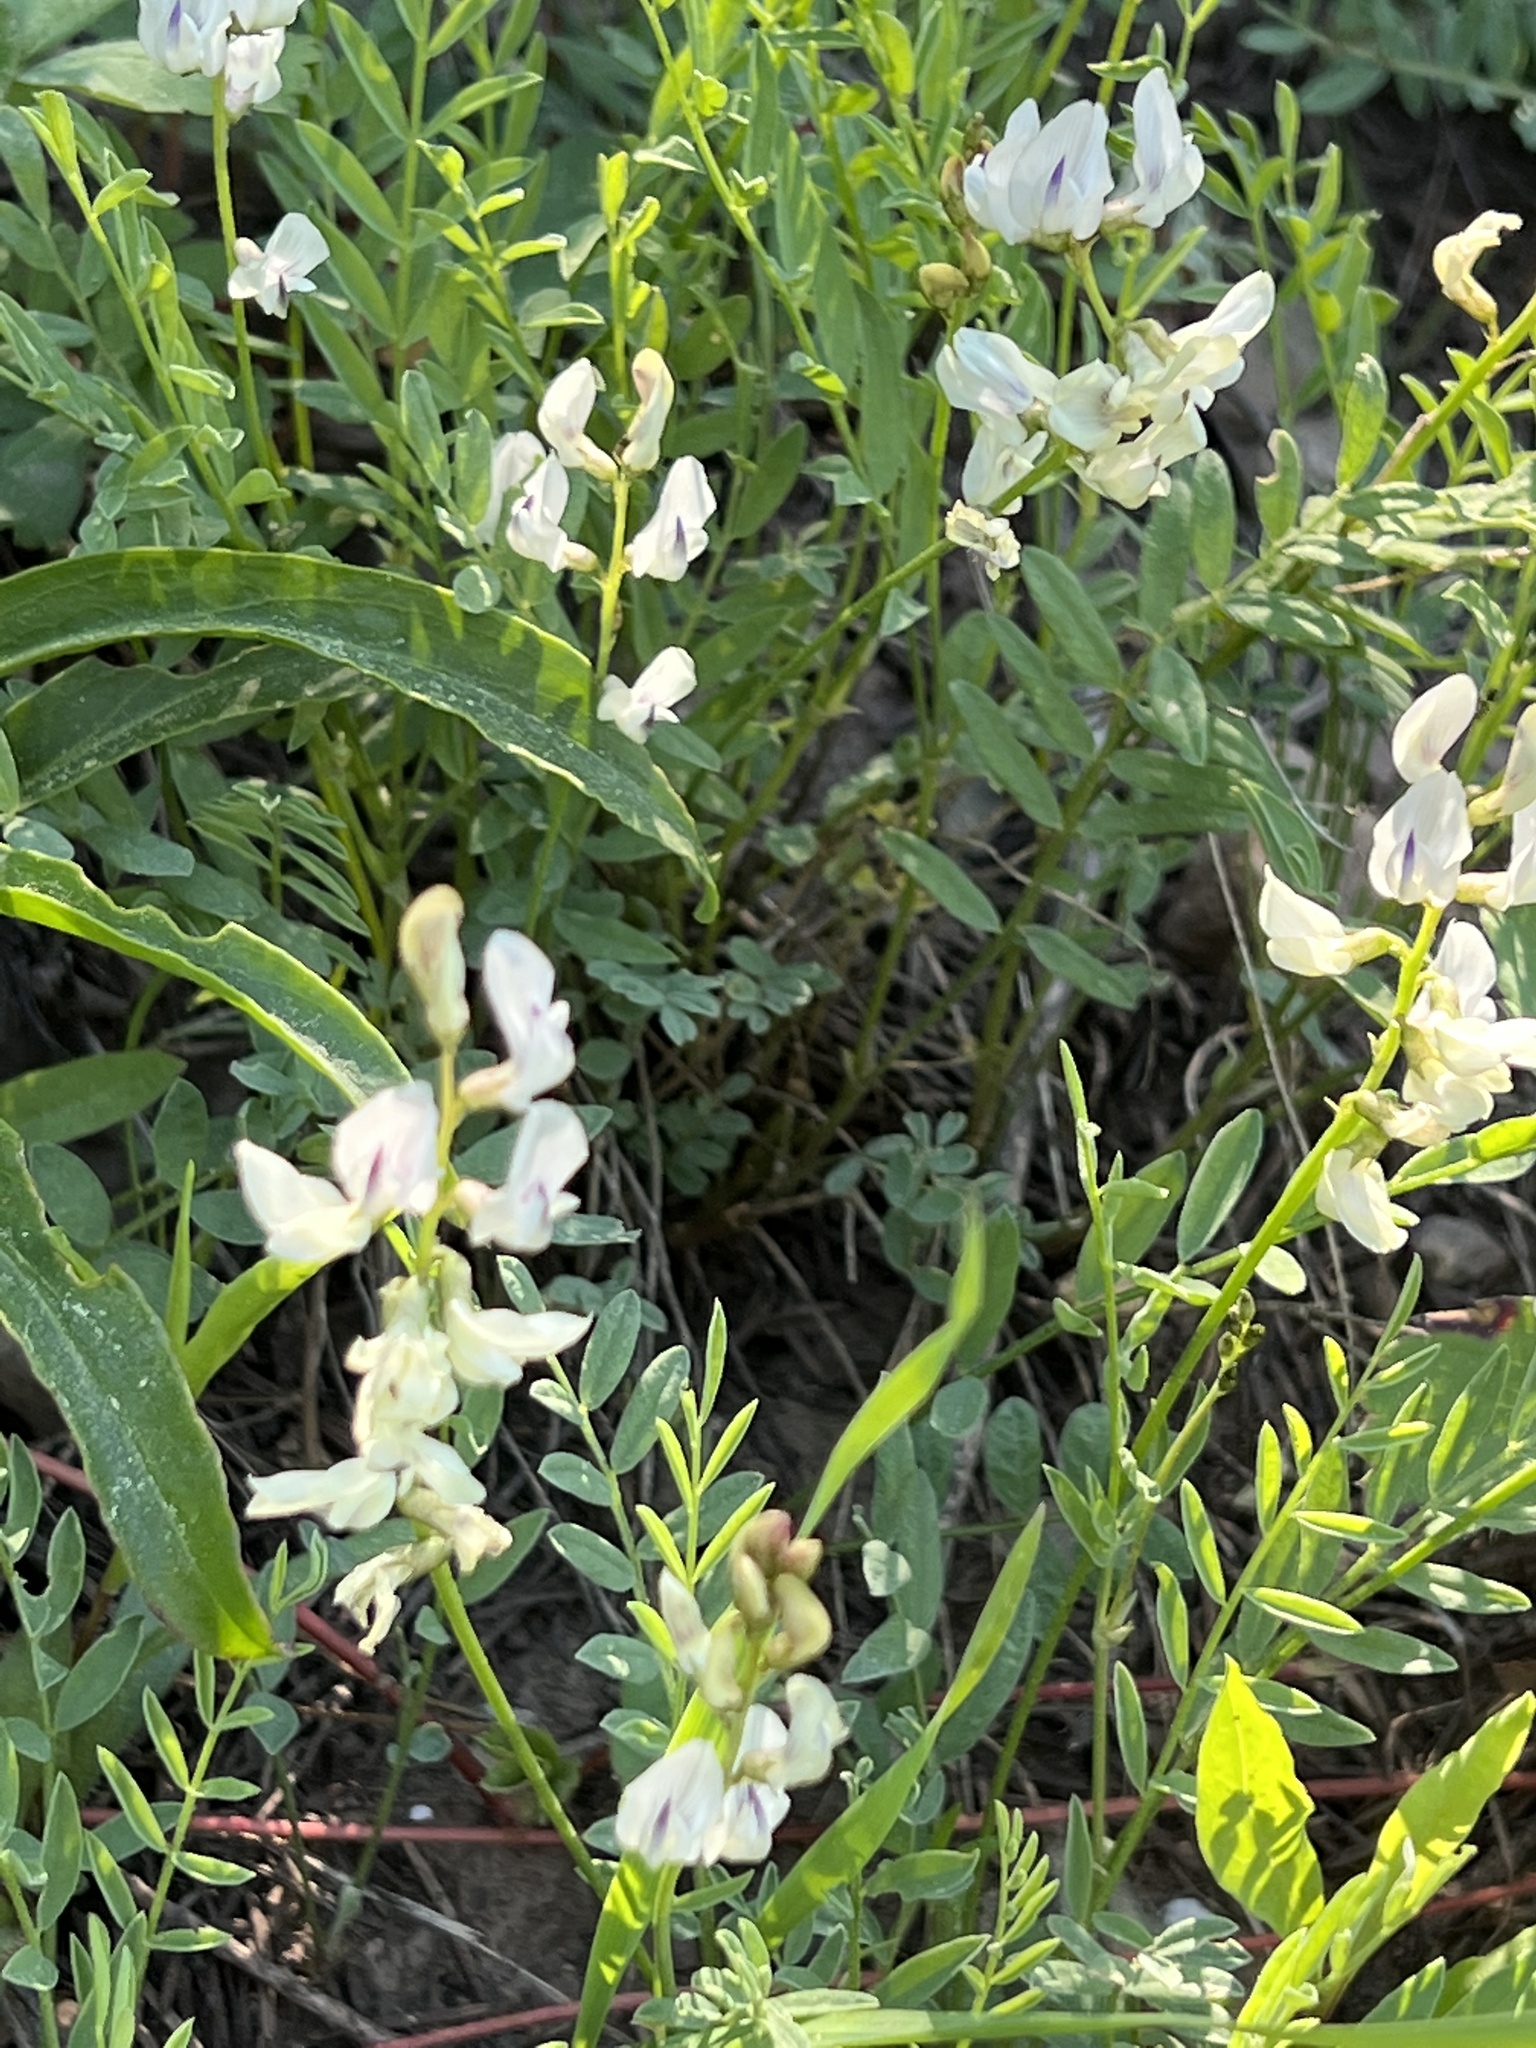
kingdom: Plantae
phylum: Tracheophyta
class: Magnoliopsida
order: Fabales
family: Fabaceae
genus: Astragalus
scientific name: Astragalus miser
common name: Timber milkvetch
